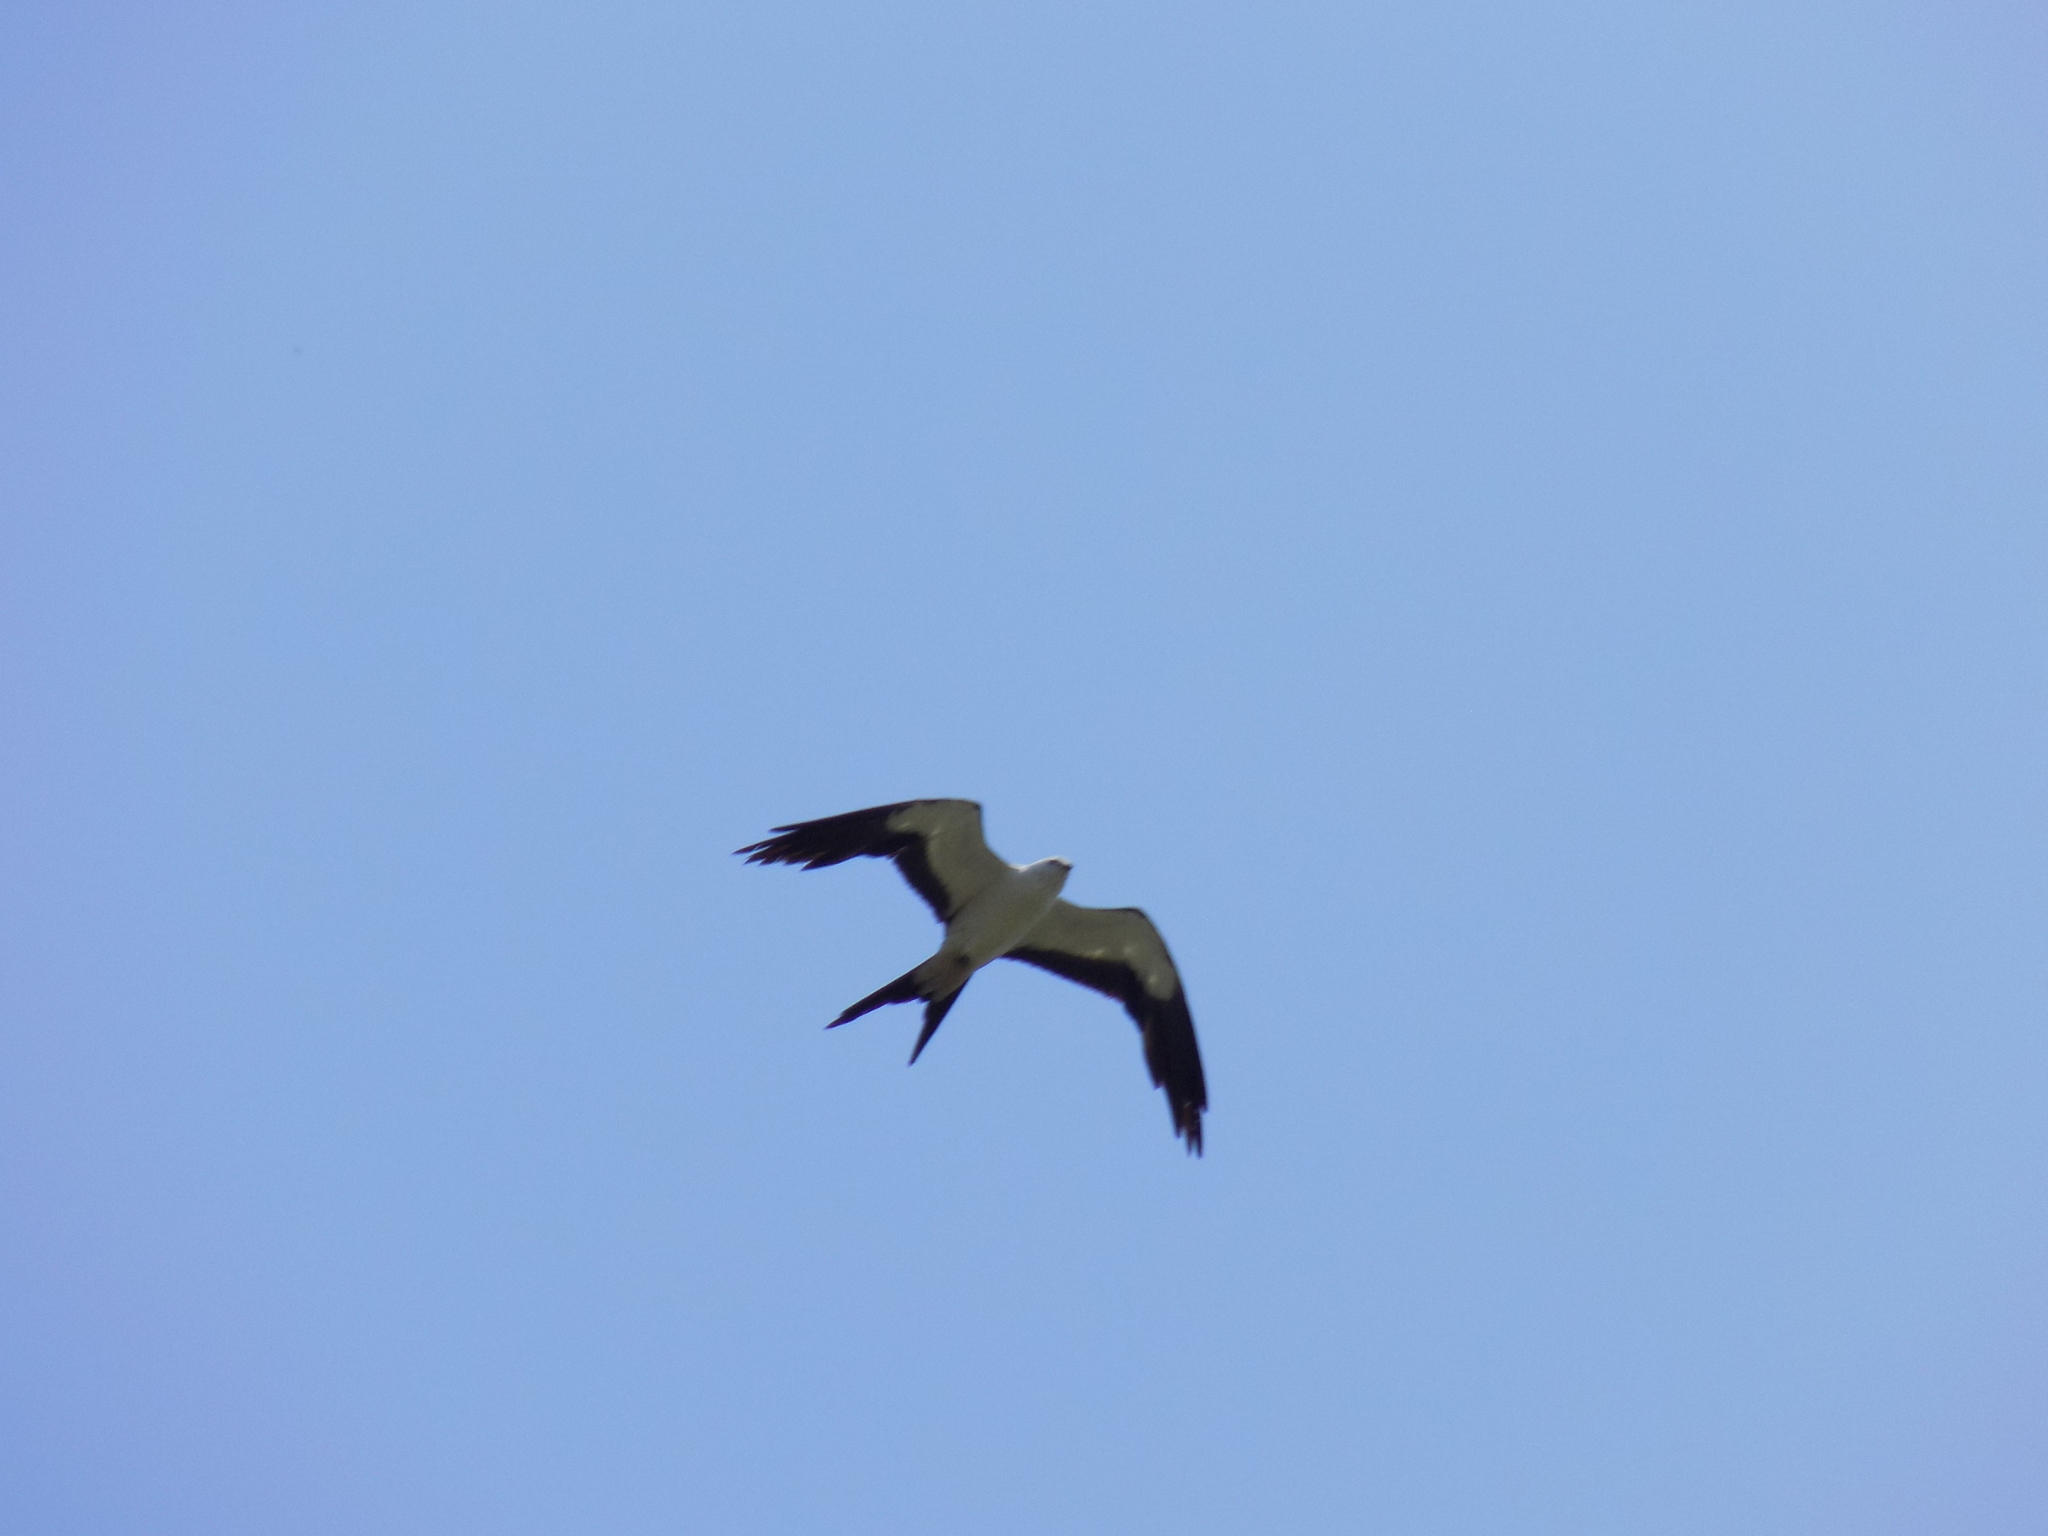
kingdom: Animalia
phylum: Chordata
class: Aves
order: Accipitriformes
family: Accipitridae
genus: Elanoides
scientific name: Elanoides forficatus
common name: Swallow-tailed kite
